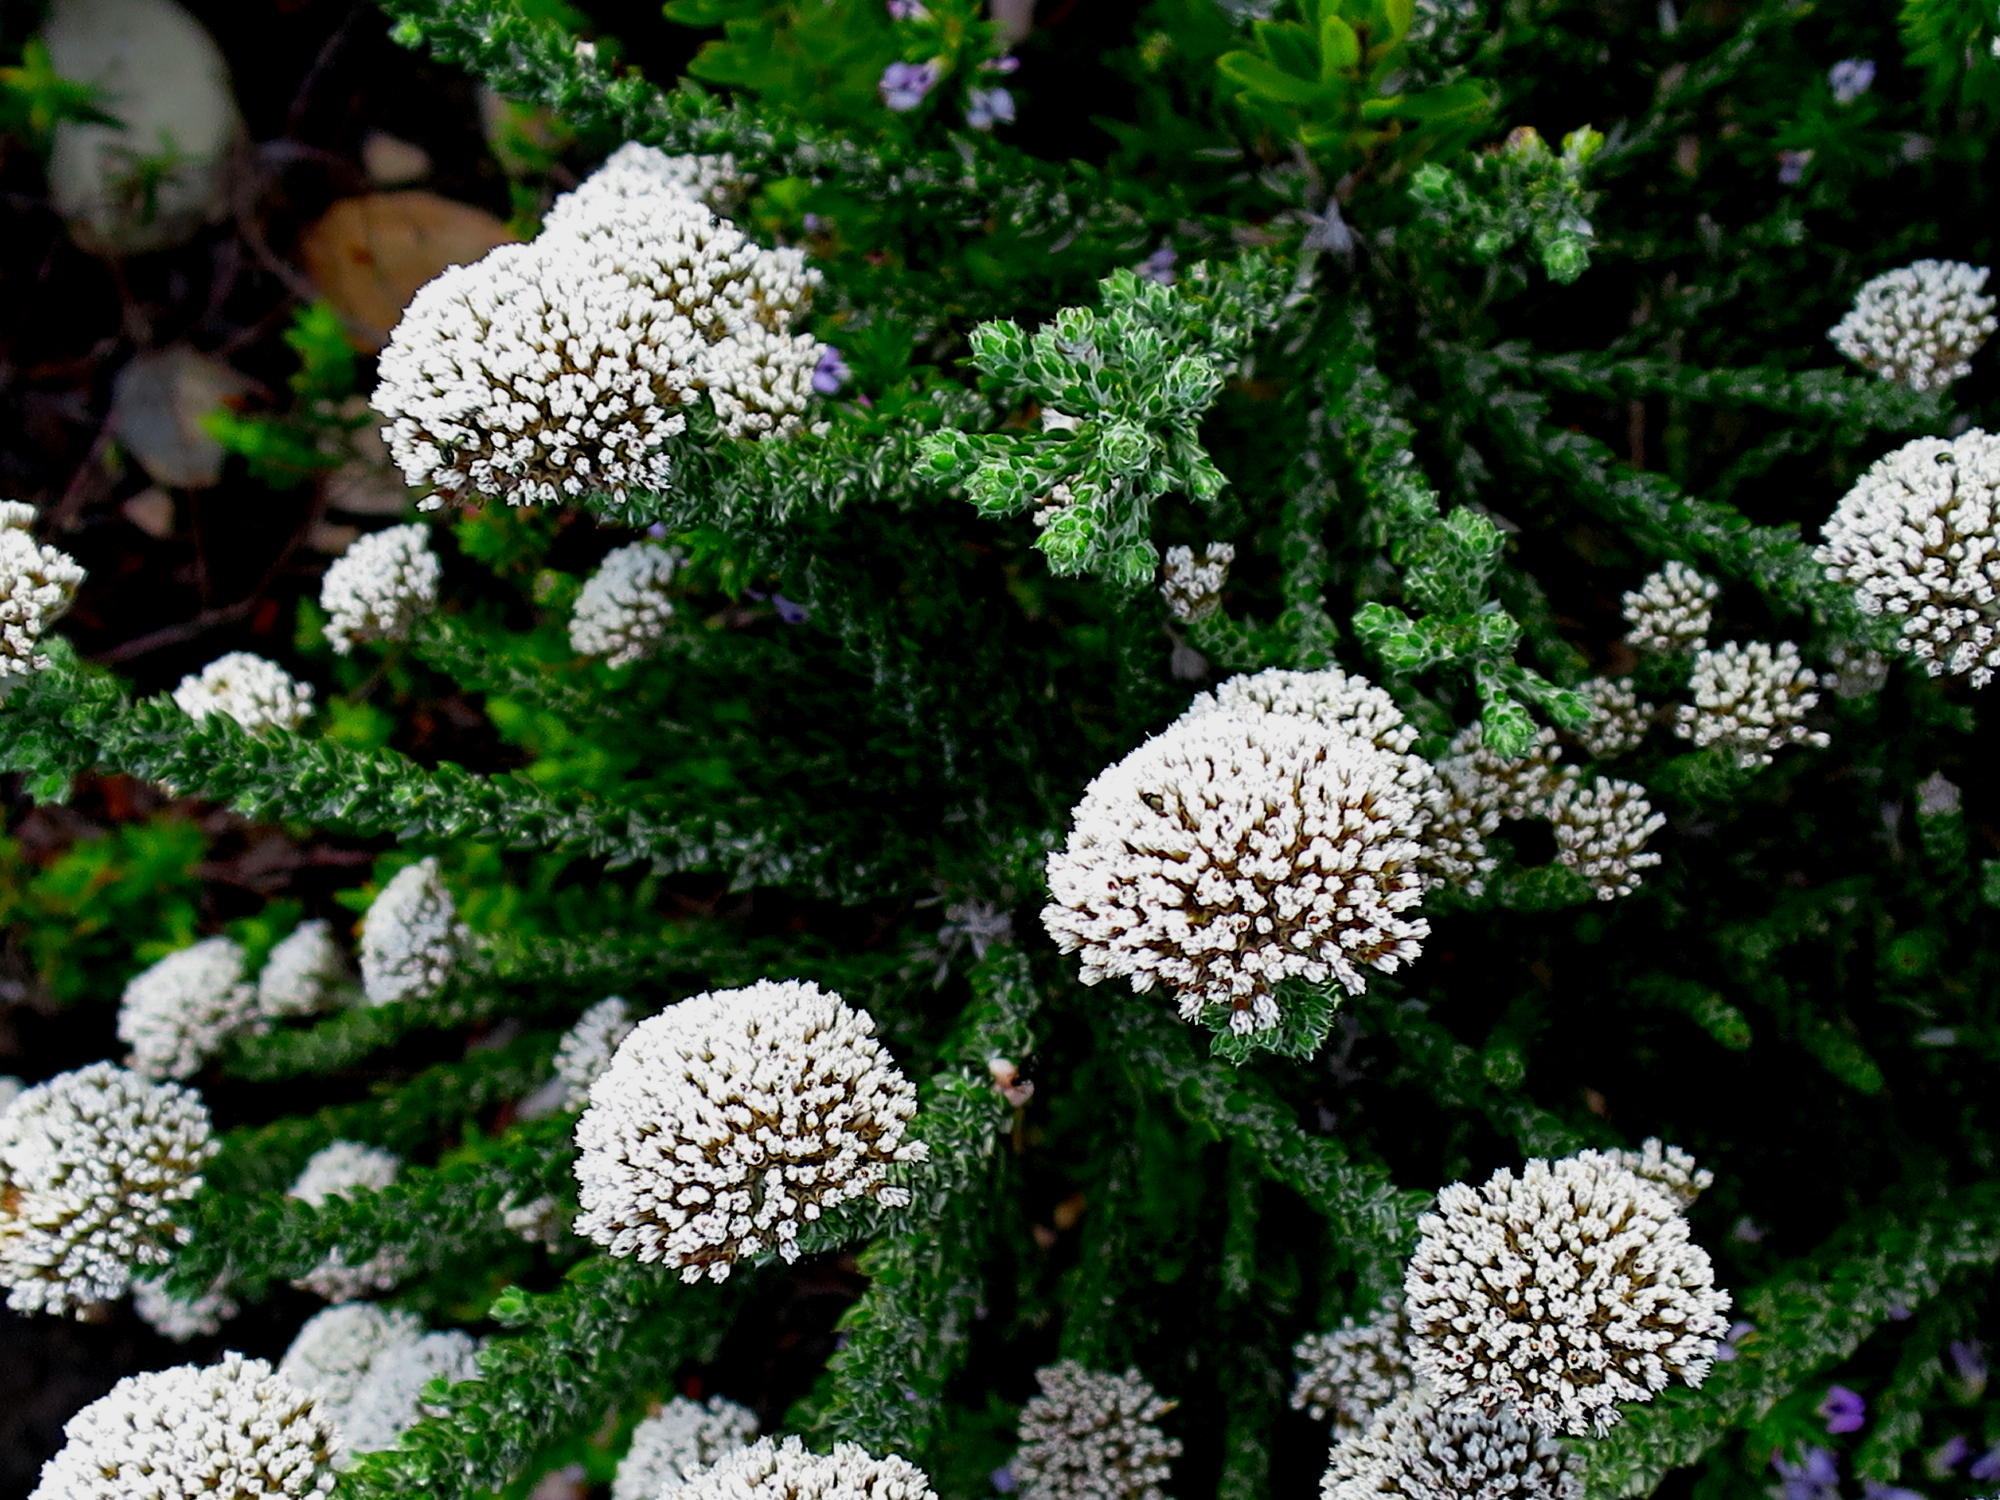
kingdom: Plantae
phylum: Tracheophyta
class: Magnoliopsida
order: Asterales
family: Asteraceae
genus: Metalasia
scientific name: Metalasia pungens
